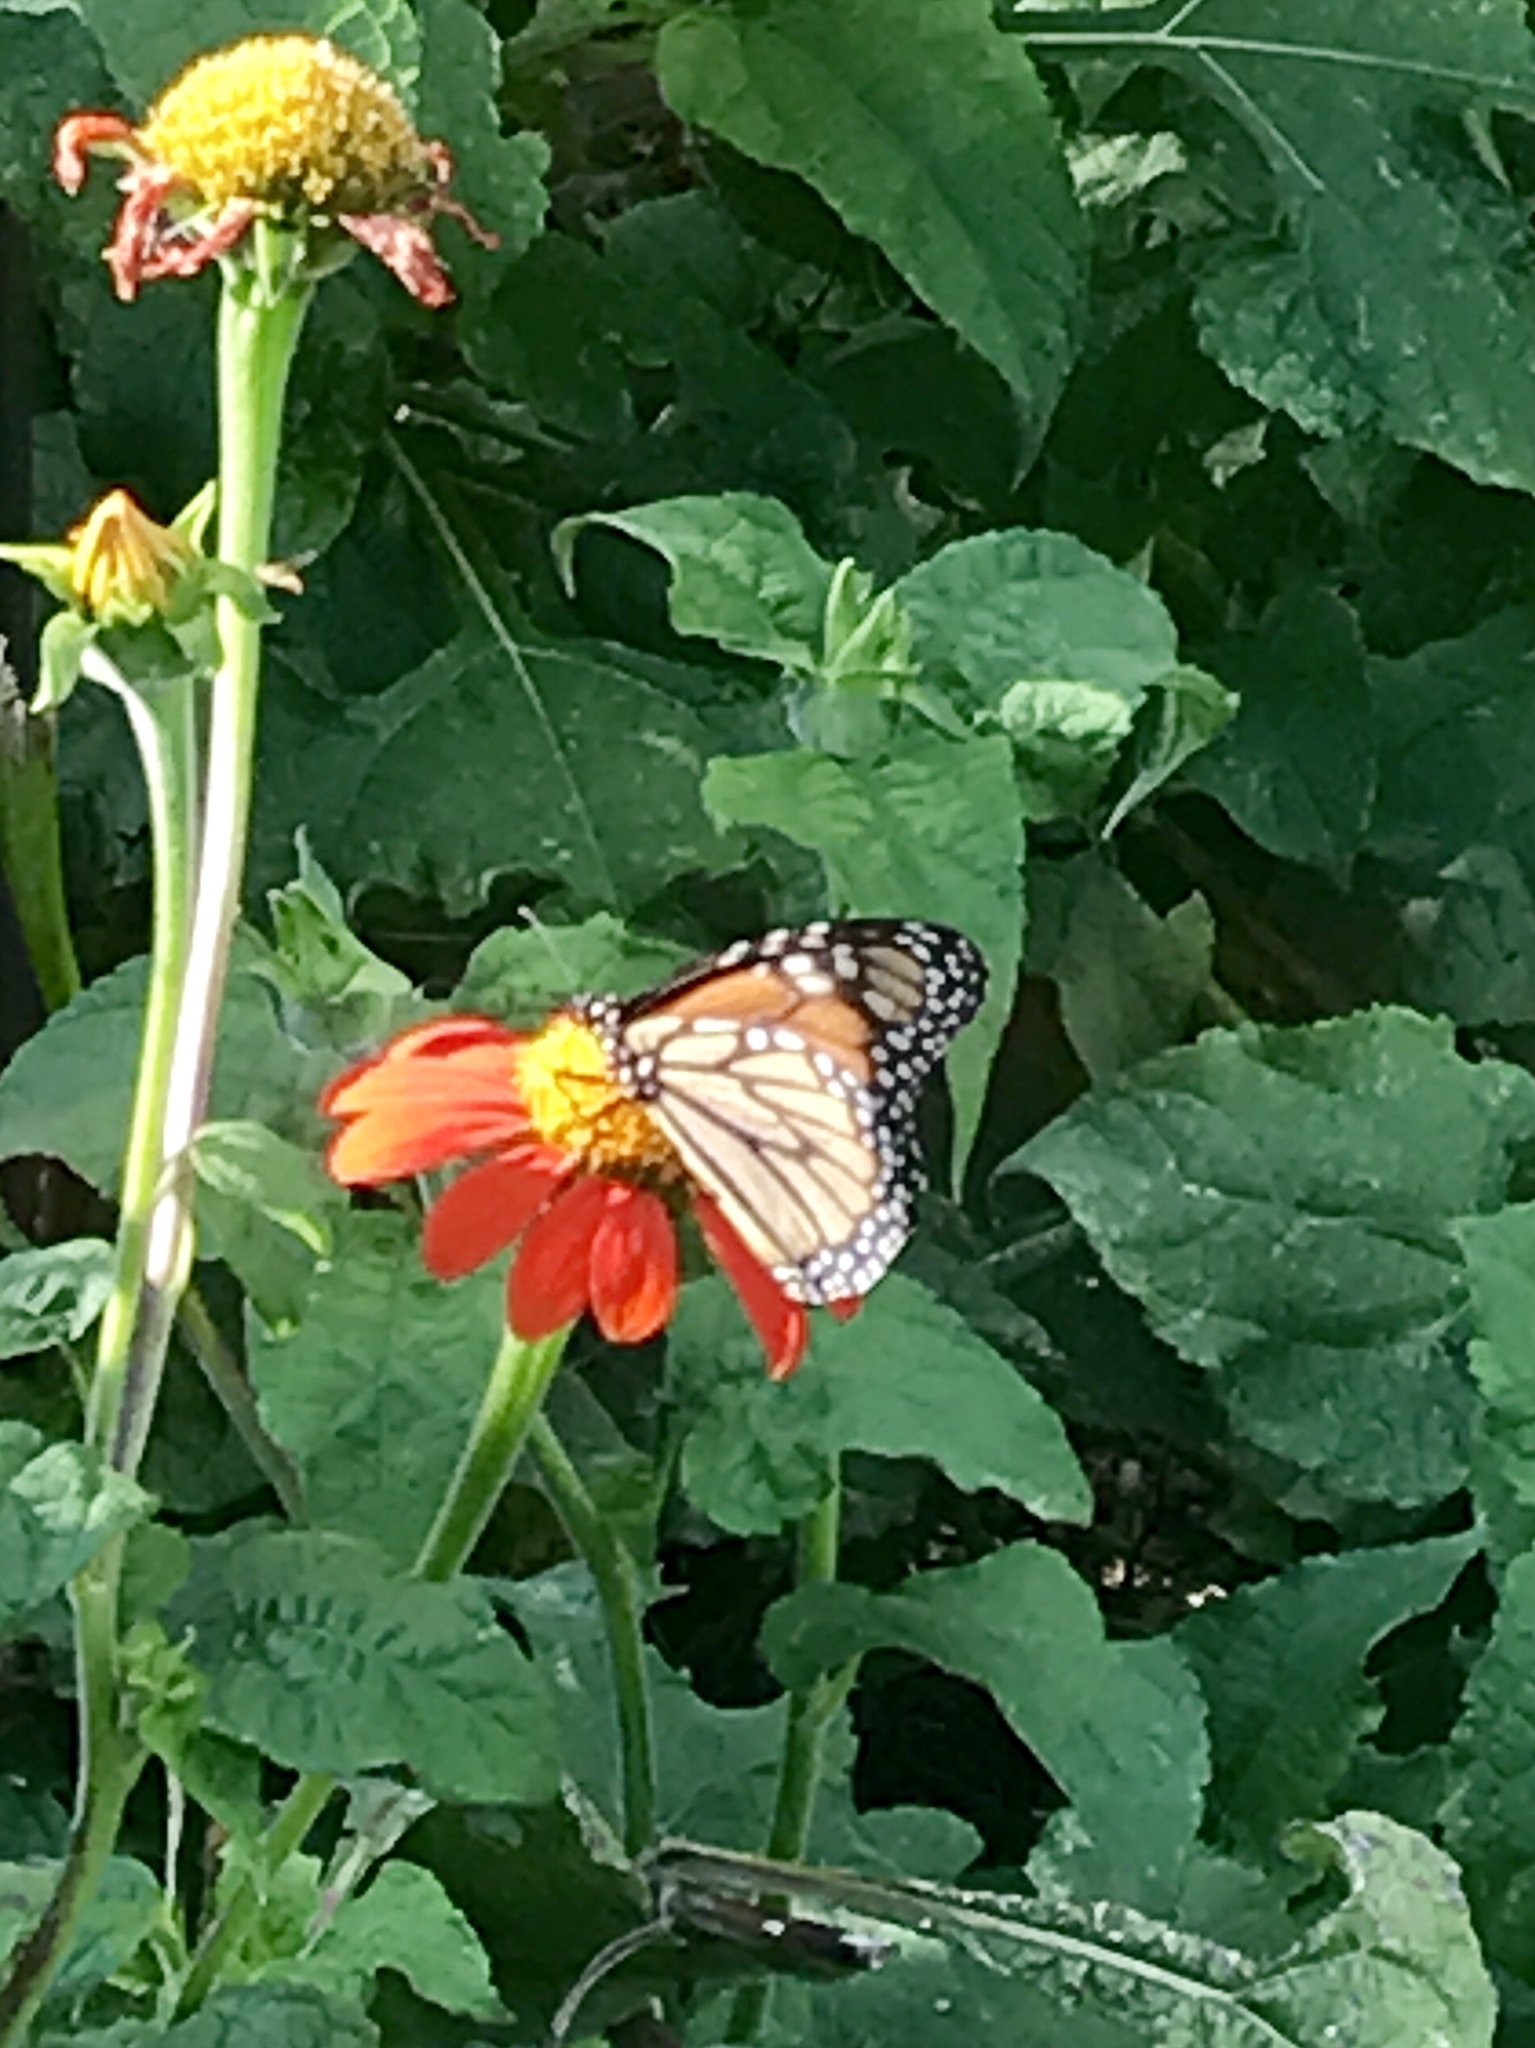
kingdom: Animalia
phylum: Arthropoda
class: Insecta
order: Lepidoptera
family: Nymphalidae
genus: Danaus
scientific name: Danaus plexippus
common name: Monarch
